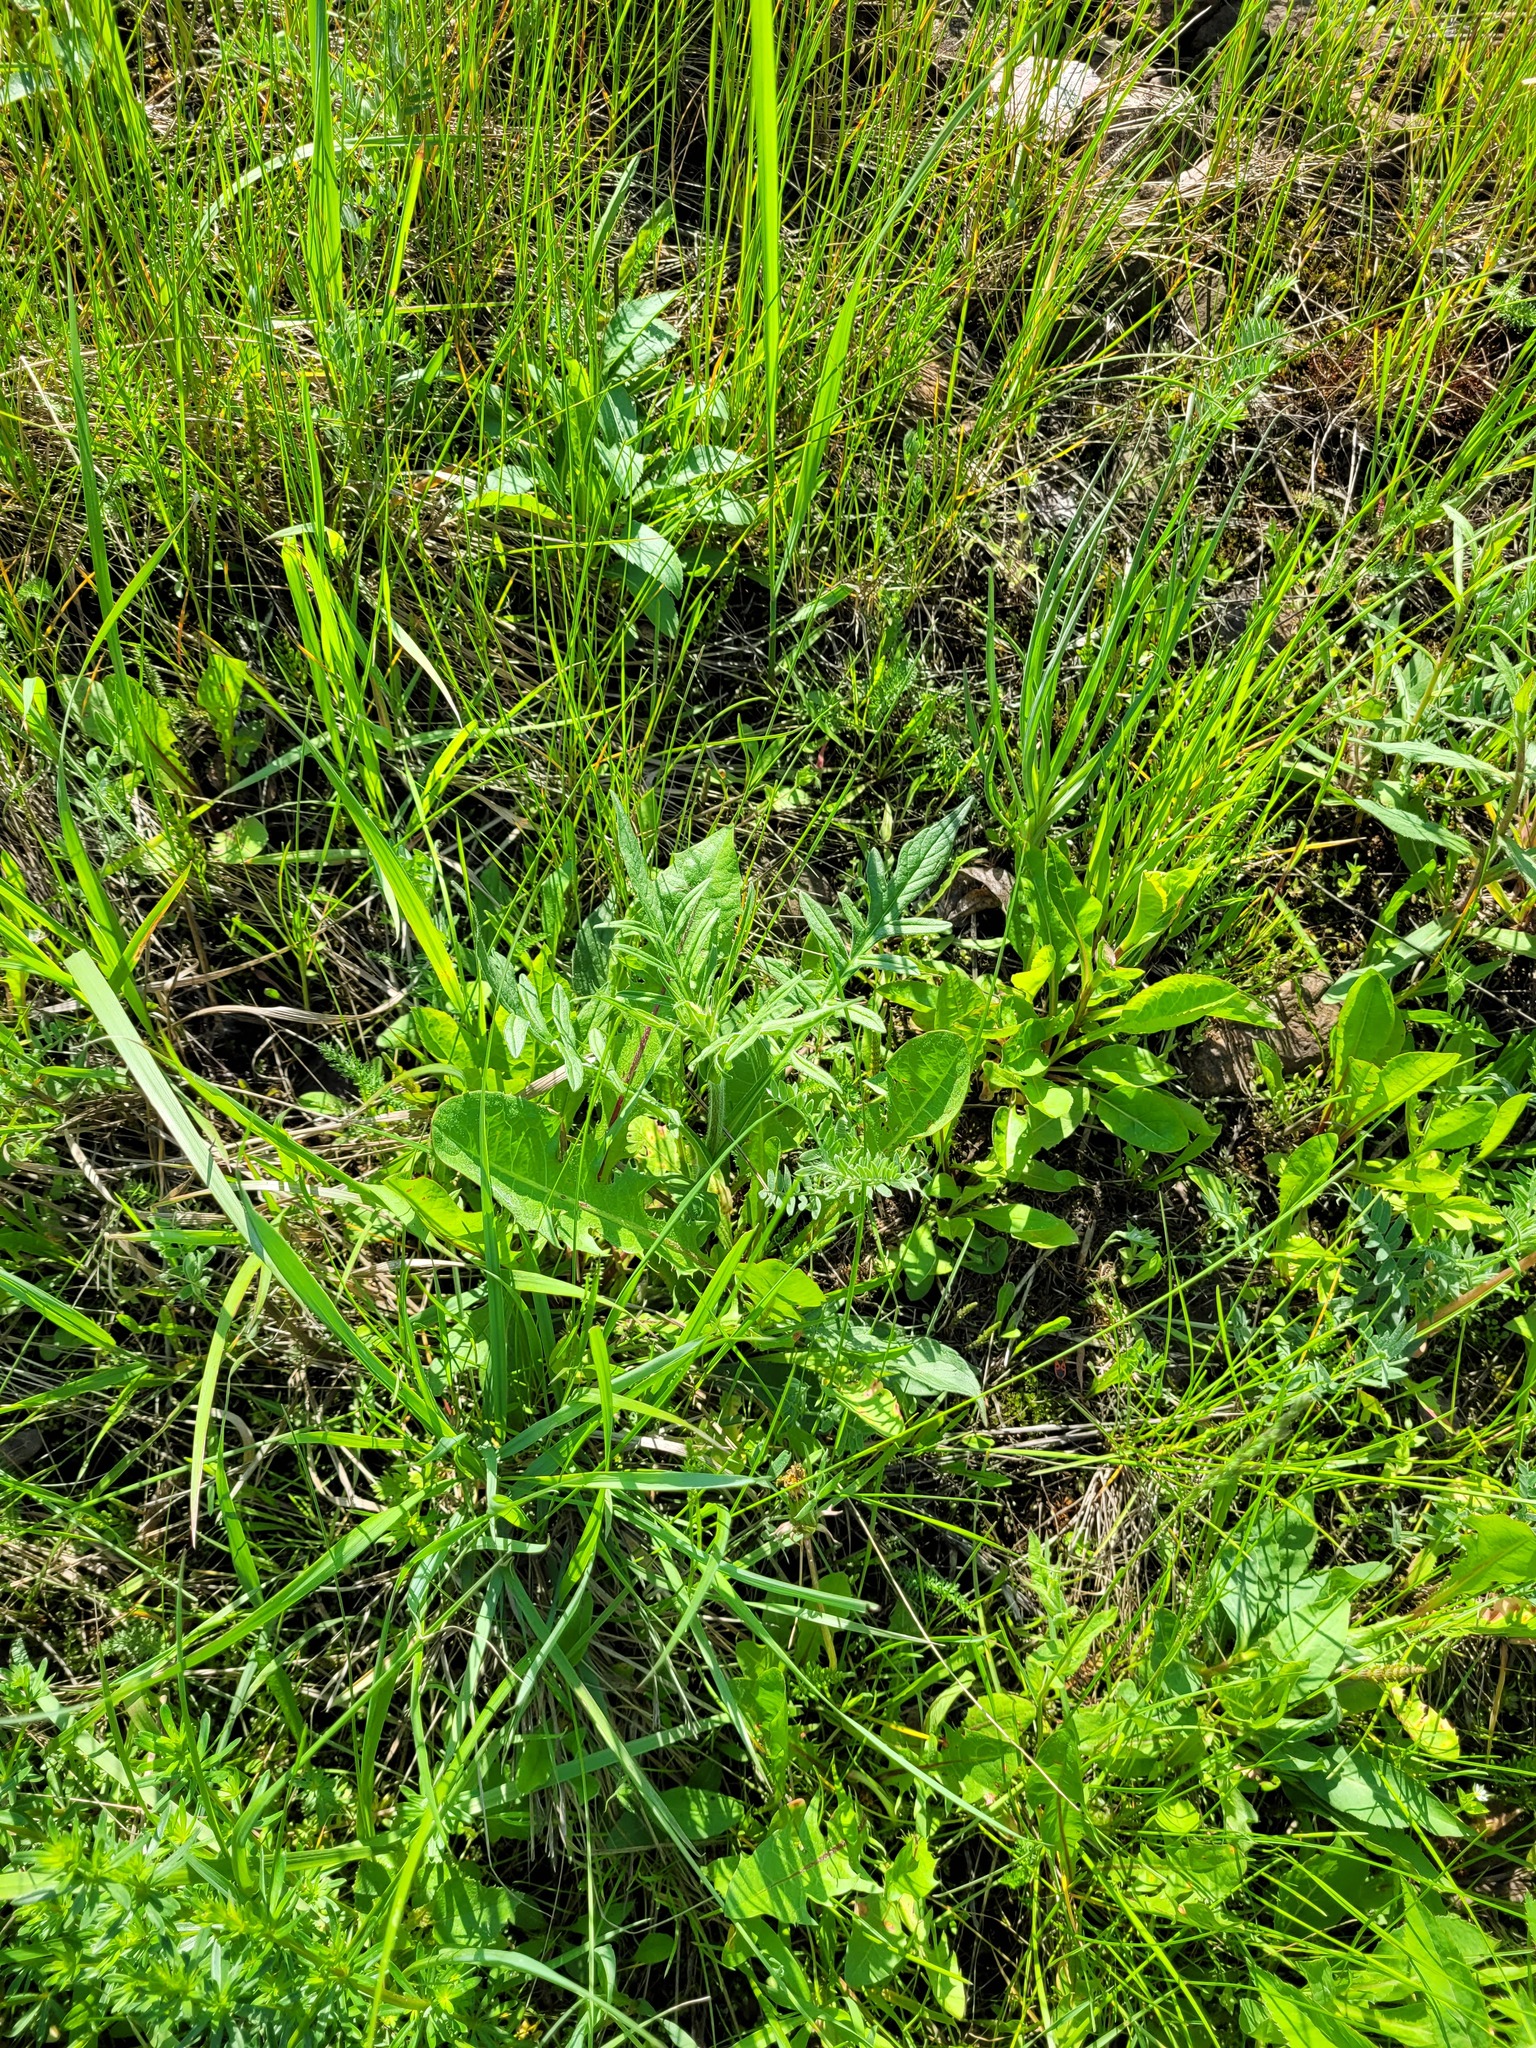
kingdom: Plantae
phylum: Tracheophyta
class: Magnoliopsida
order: Dipsacales
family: Caprifoliaceae
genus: Knautia
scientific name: Knautia arvensis
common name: Field scabiosa
